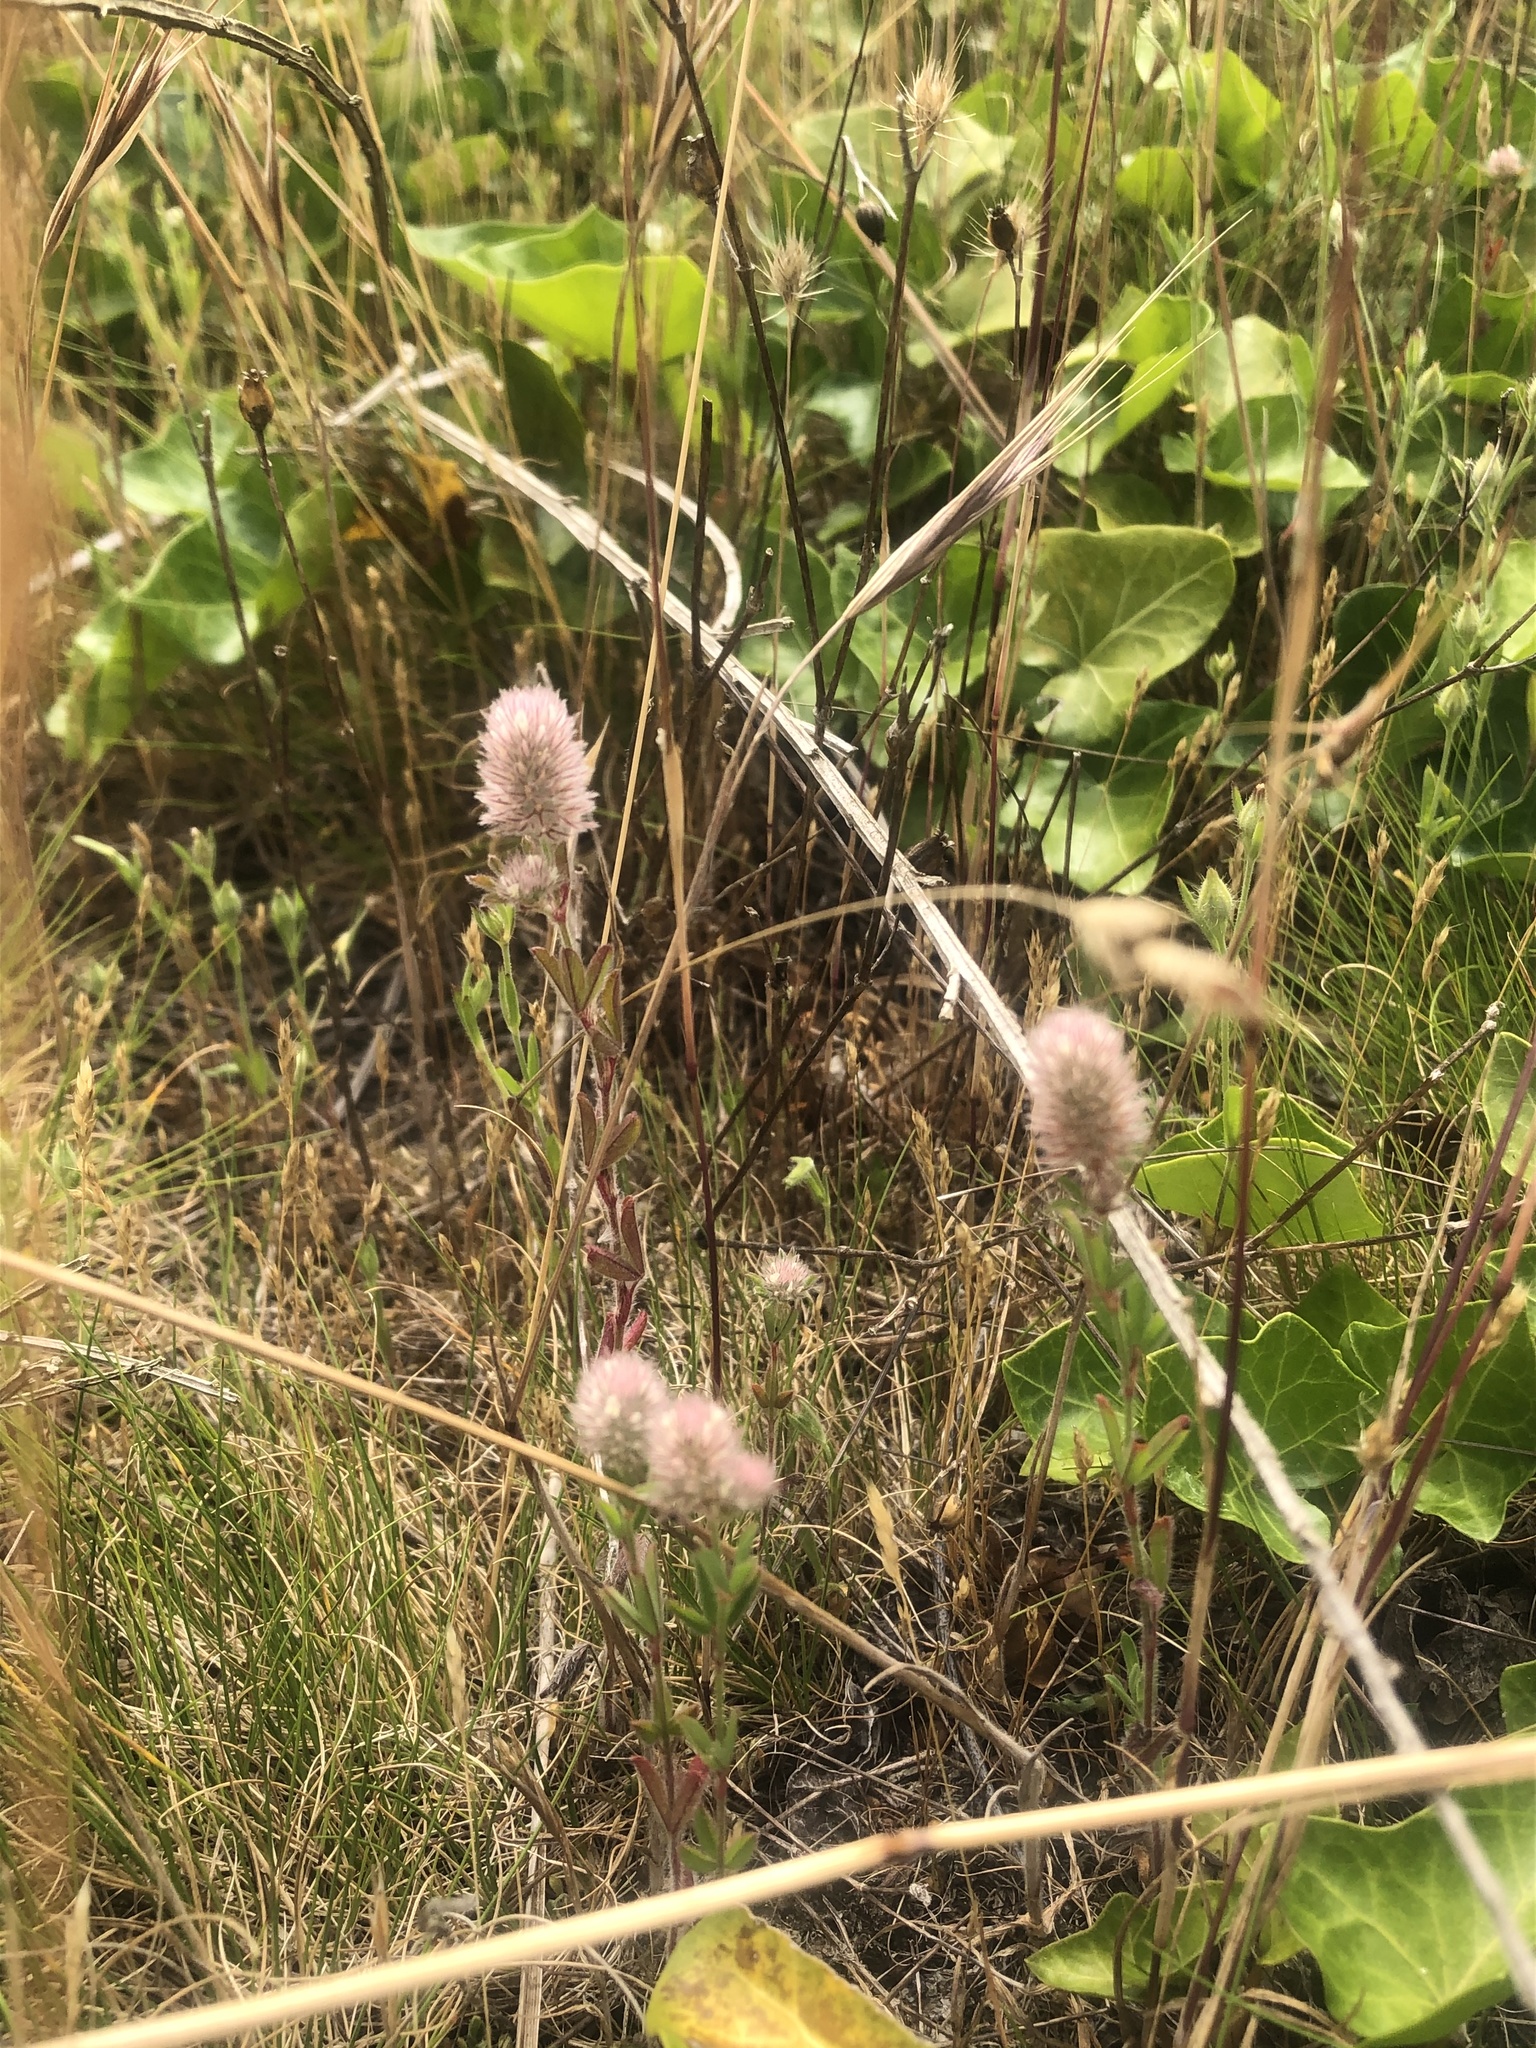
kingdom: Plantae
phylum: Tracheophyta
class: Magnoliopsida
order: Fabales
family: Fabaceae
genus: Trifolium
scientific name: Trifolium arvense
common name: Hare's-foot clover
